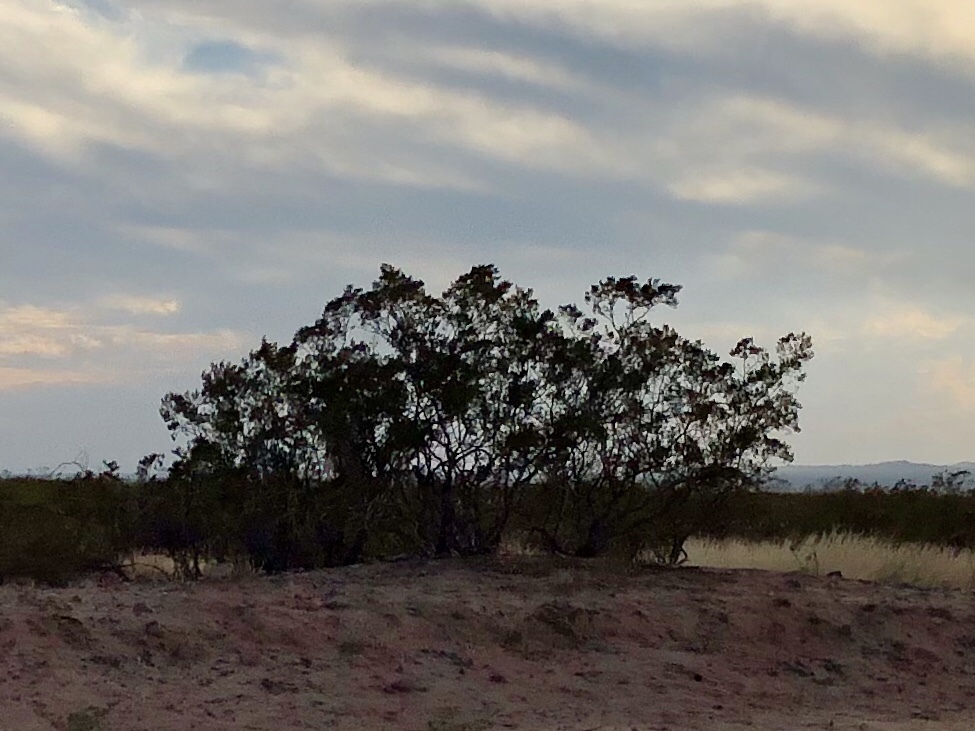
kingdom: Plantae
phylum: Tracheophyta
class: Magnoliopsida
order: Zygophyllales
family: Zygophyllaceae
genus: Larrea
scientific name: Larrea tridentata
